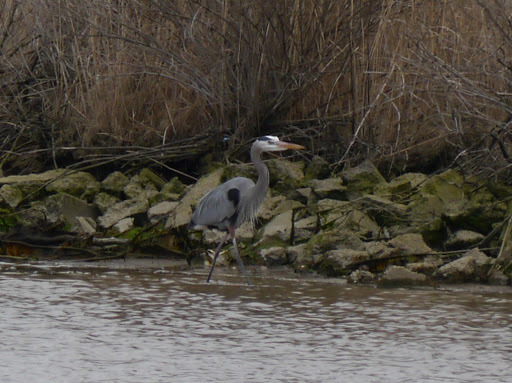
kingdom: Animalia
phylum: Chordata
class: Aves
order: Pelecaniformes
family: Ardeidae
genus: Ardea
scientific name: Ardea herodias
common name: Great blue heron
